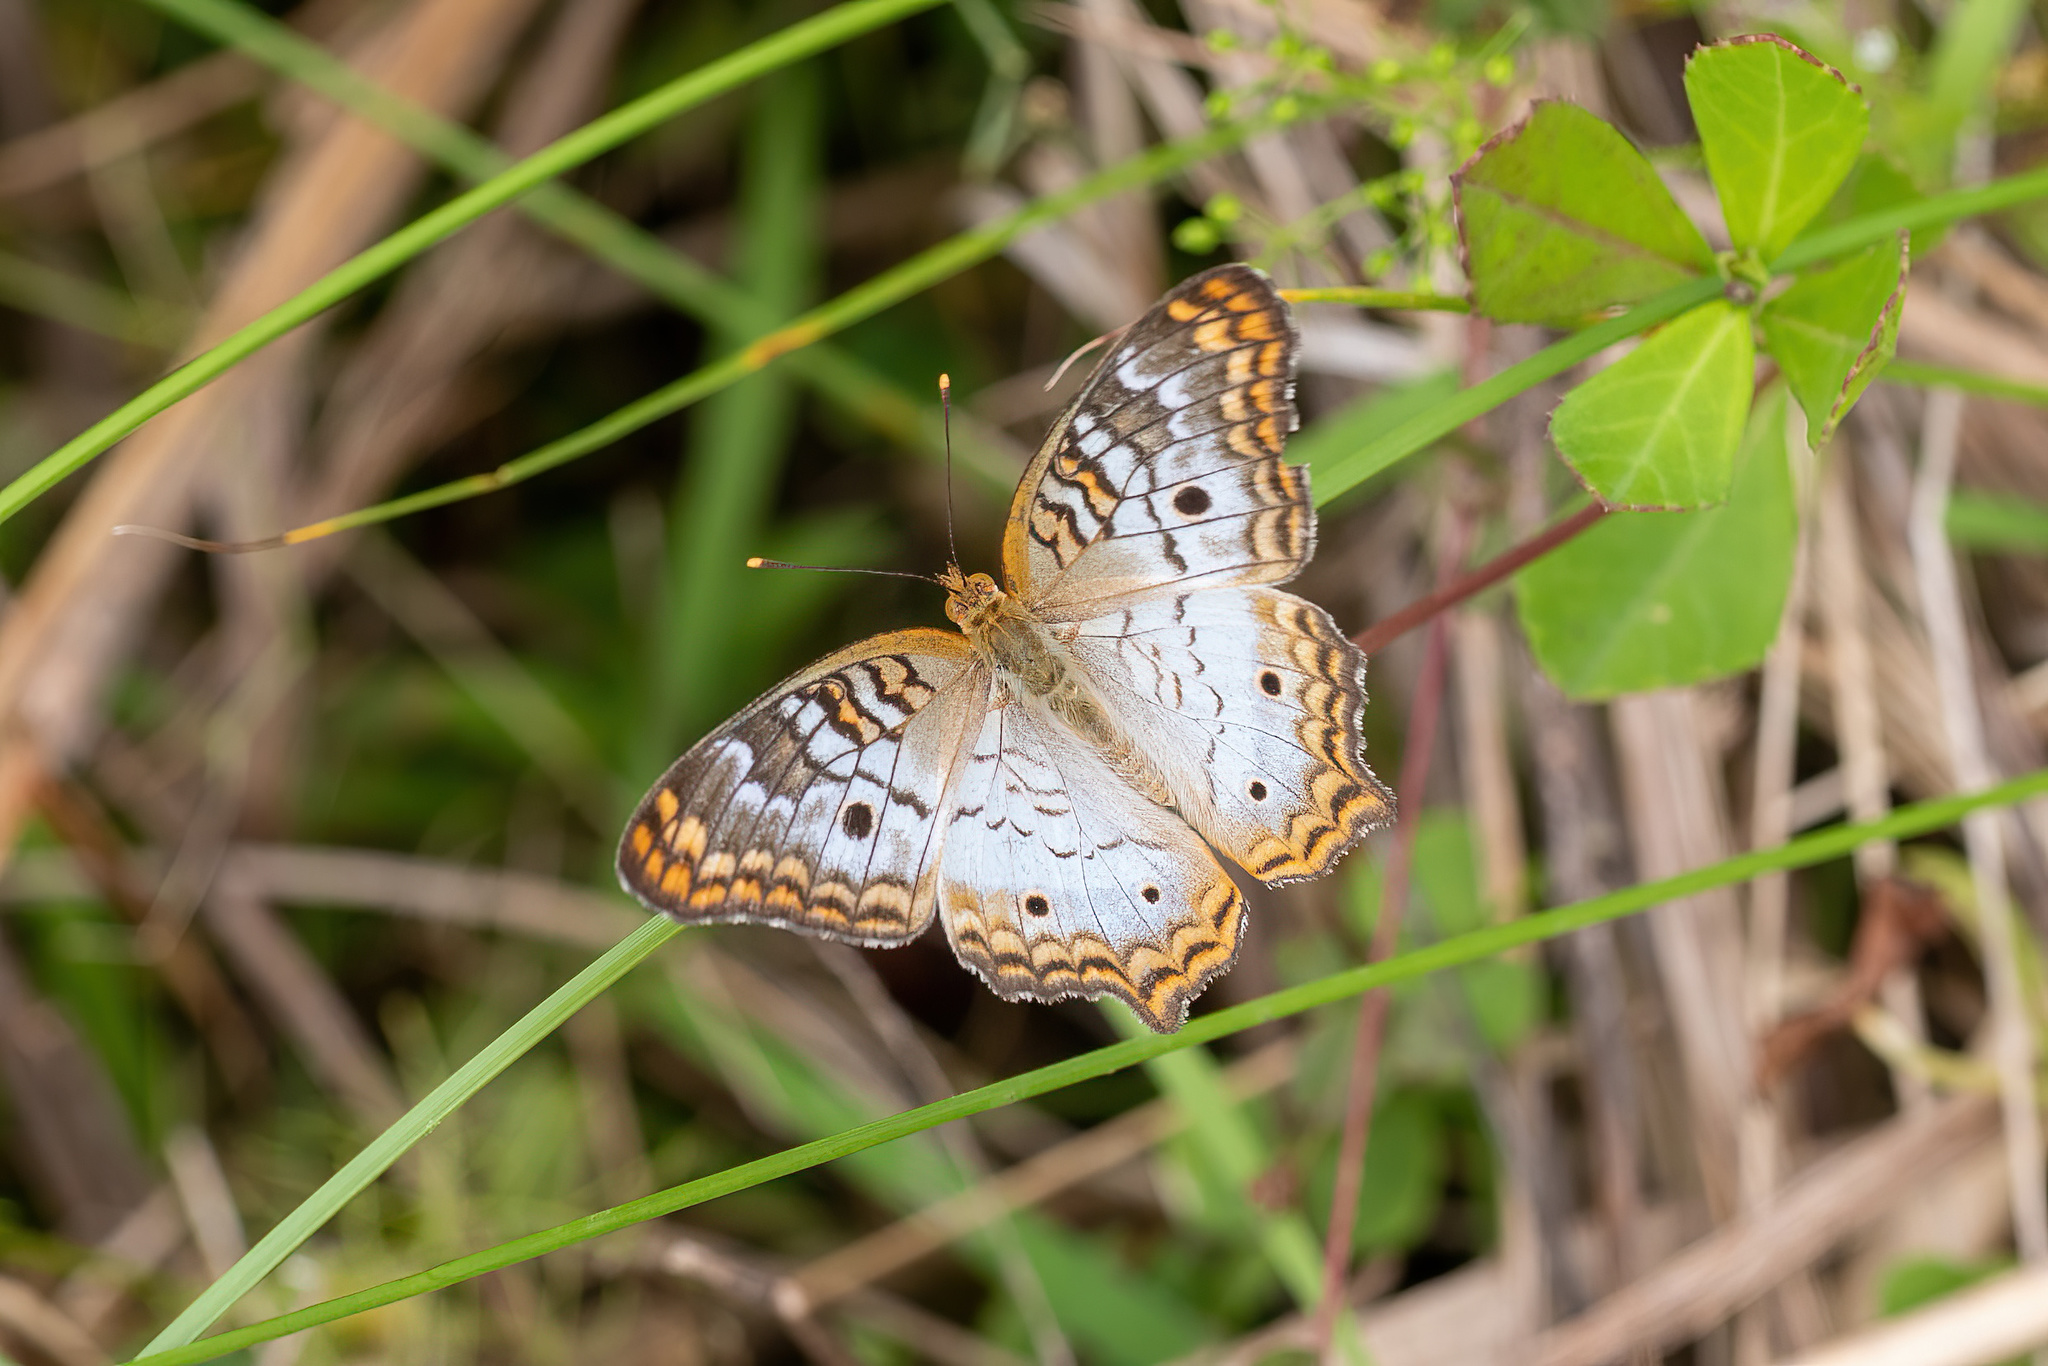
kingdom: Animalia
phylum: Arthropoda
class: Insecta
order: Lepidoptera
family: Nymphalidae
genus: Anartia
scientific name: Anartia jatrophae
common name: White peacock
